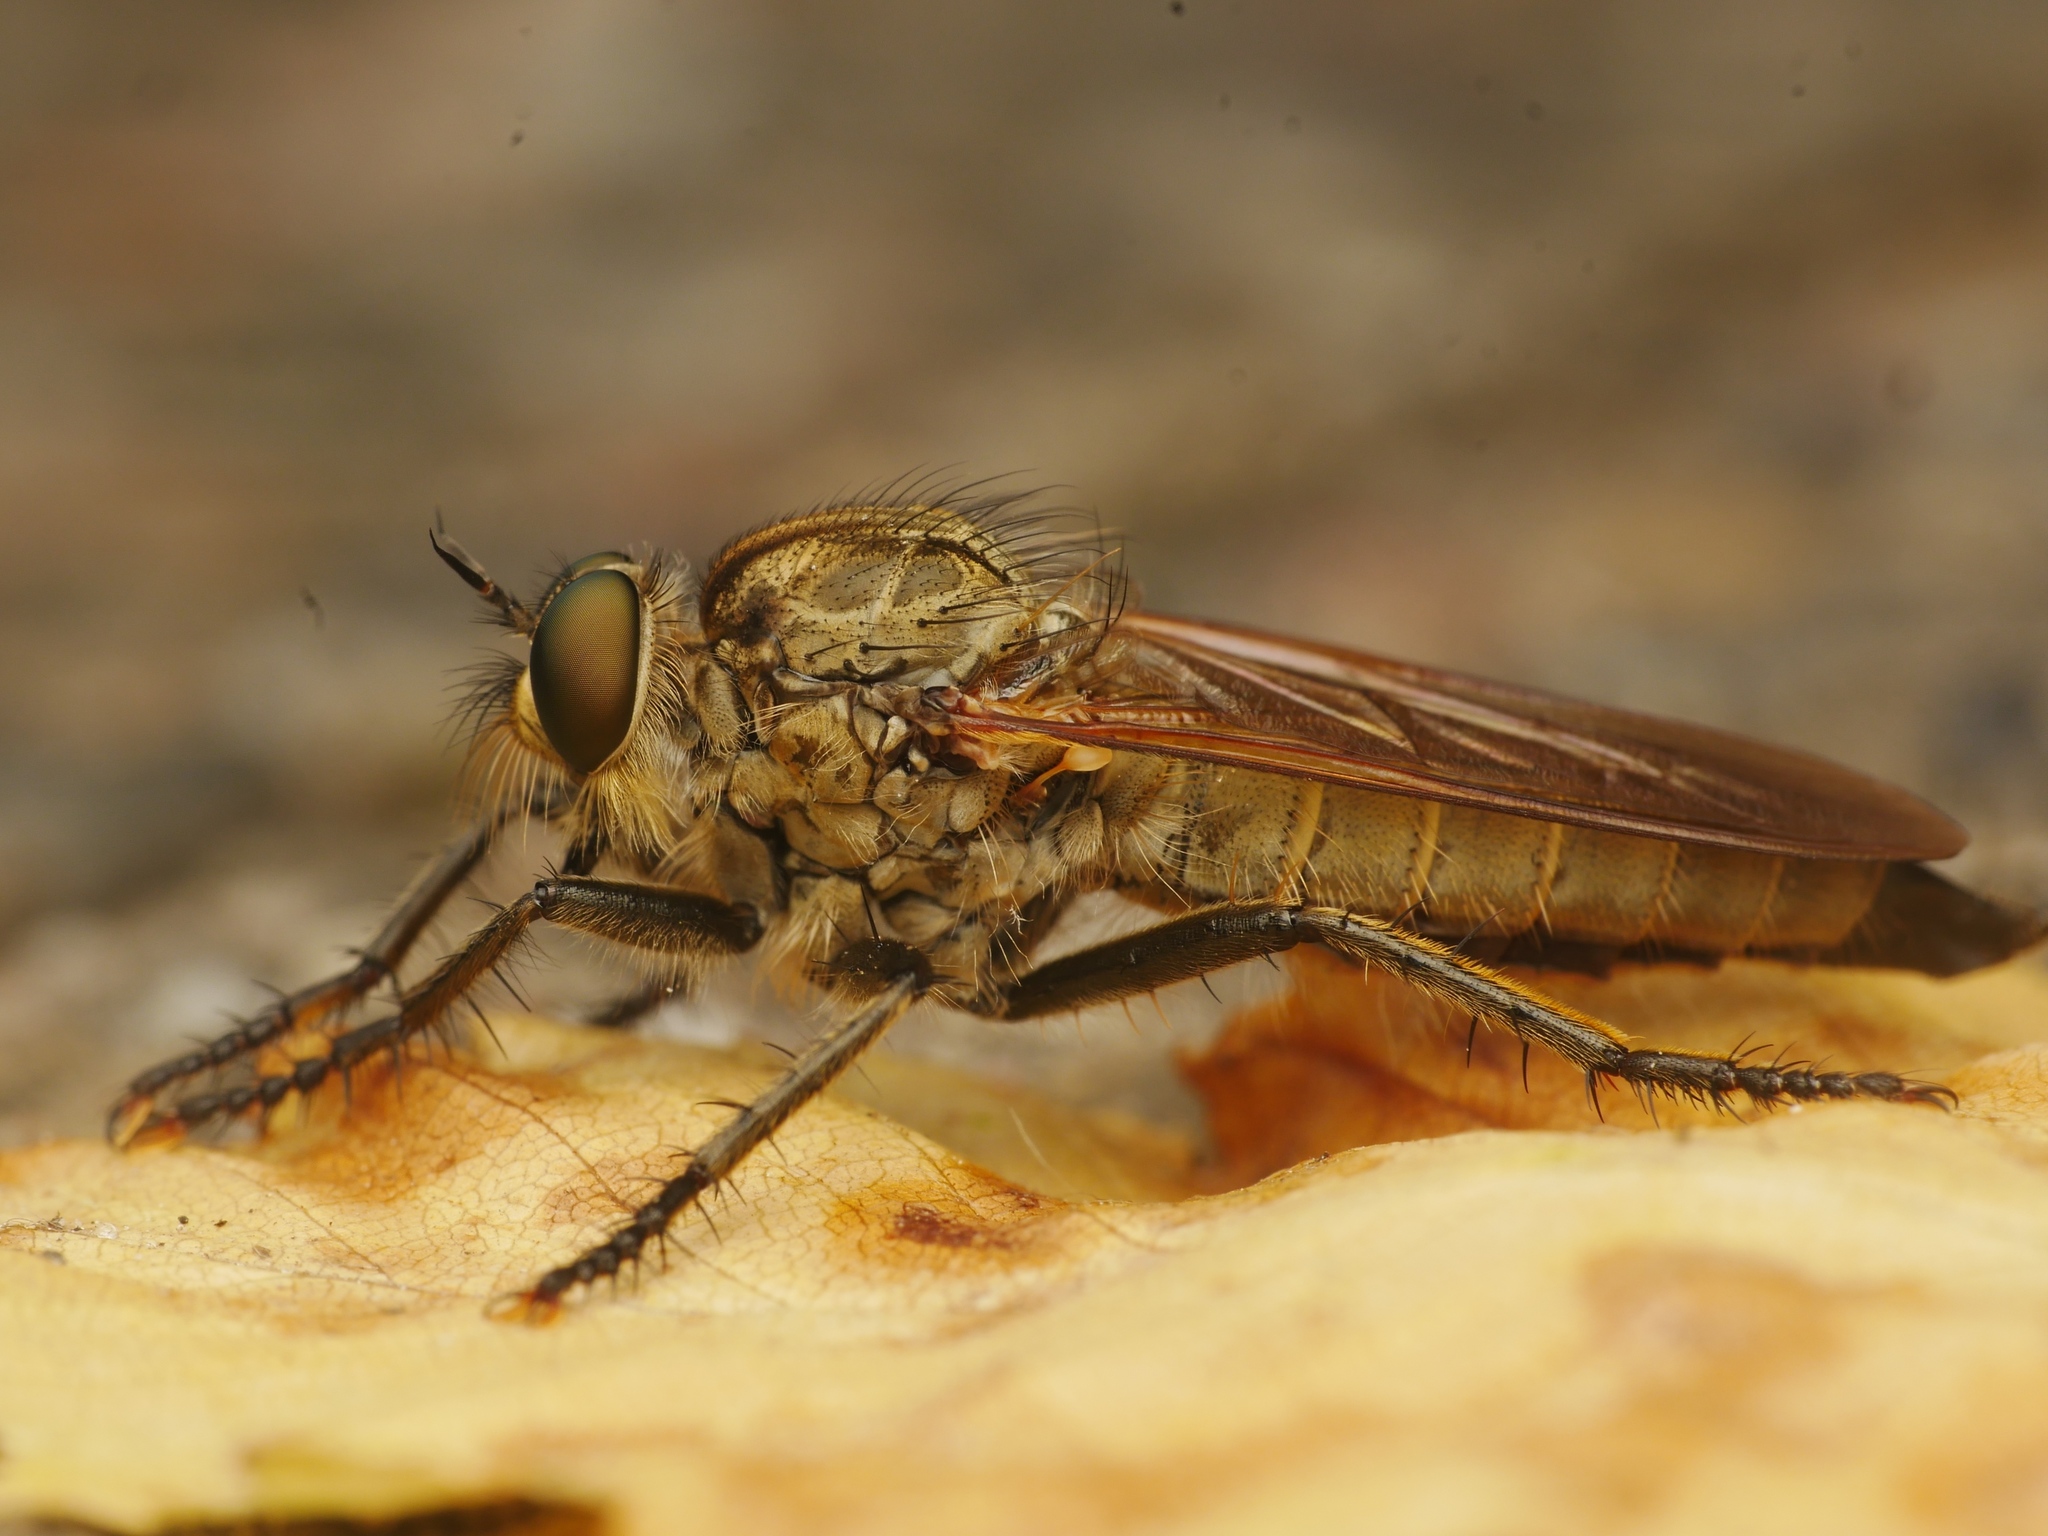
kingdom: Animalia
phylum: Arthropoda
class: Insecta
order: Diptera
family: Asilidae
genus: Eutolmus
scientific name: Eutolmus rufibarbis
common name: Golden-tabbed robberfly
